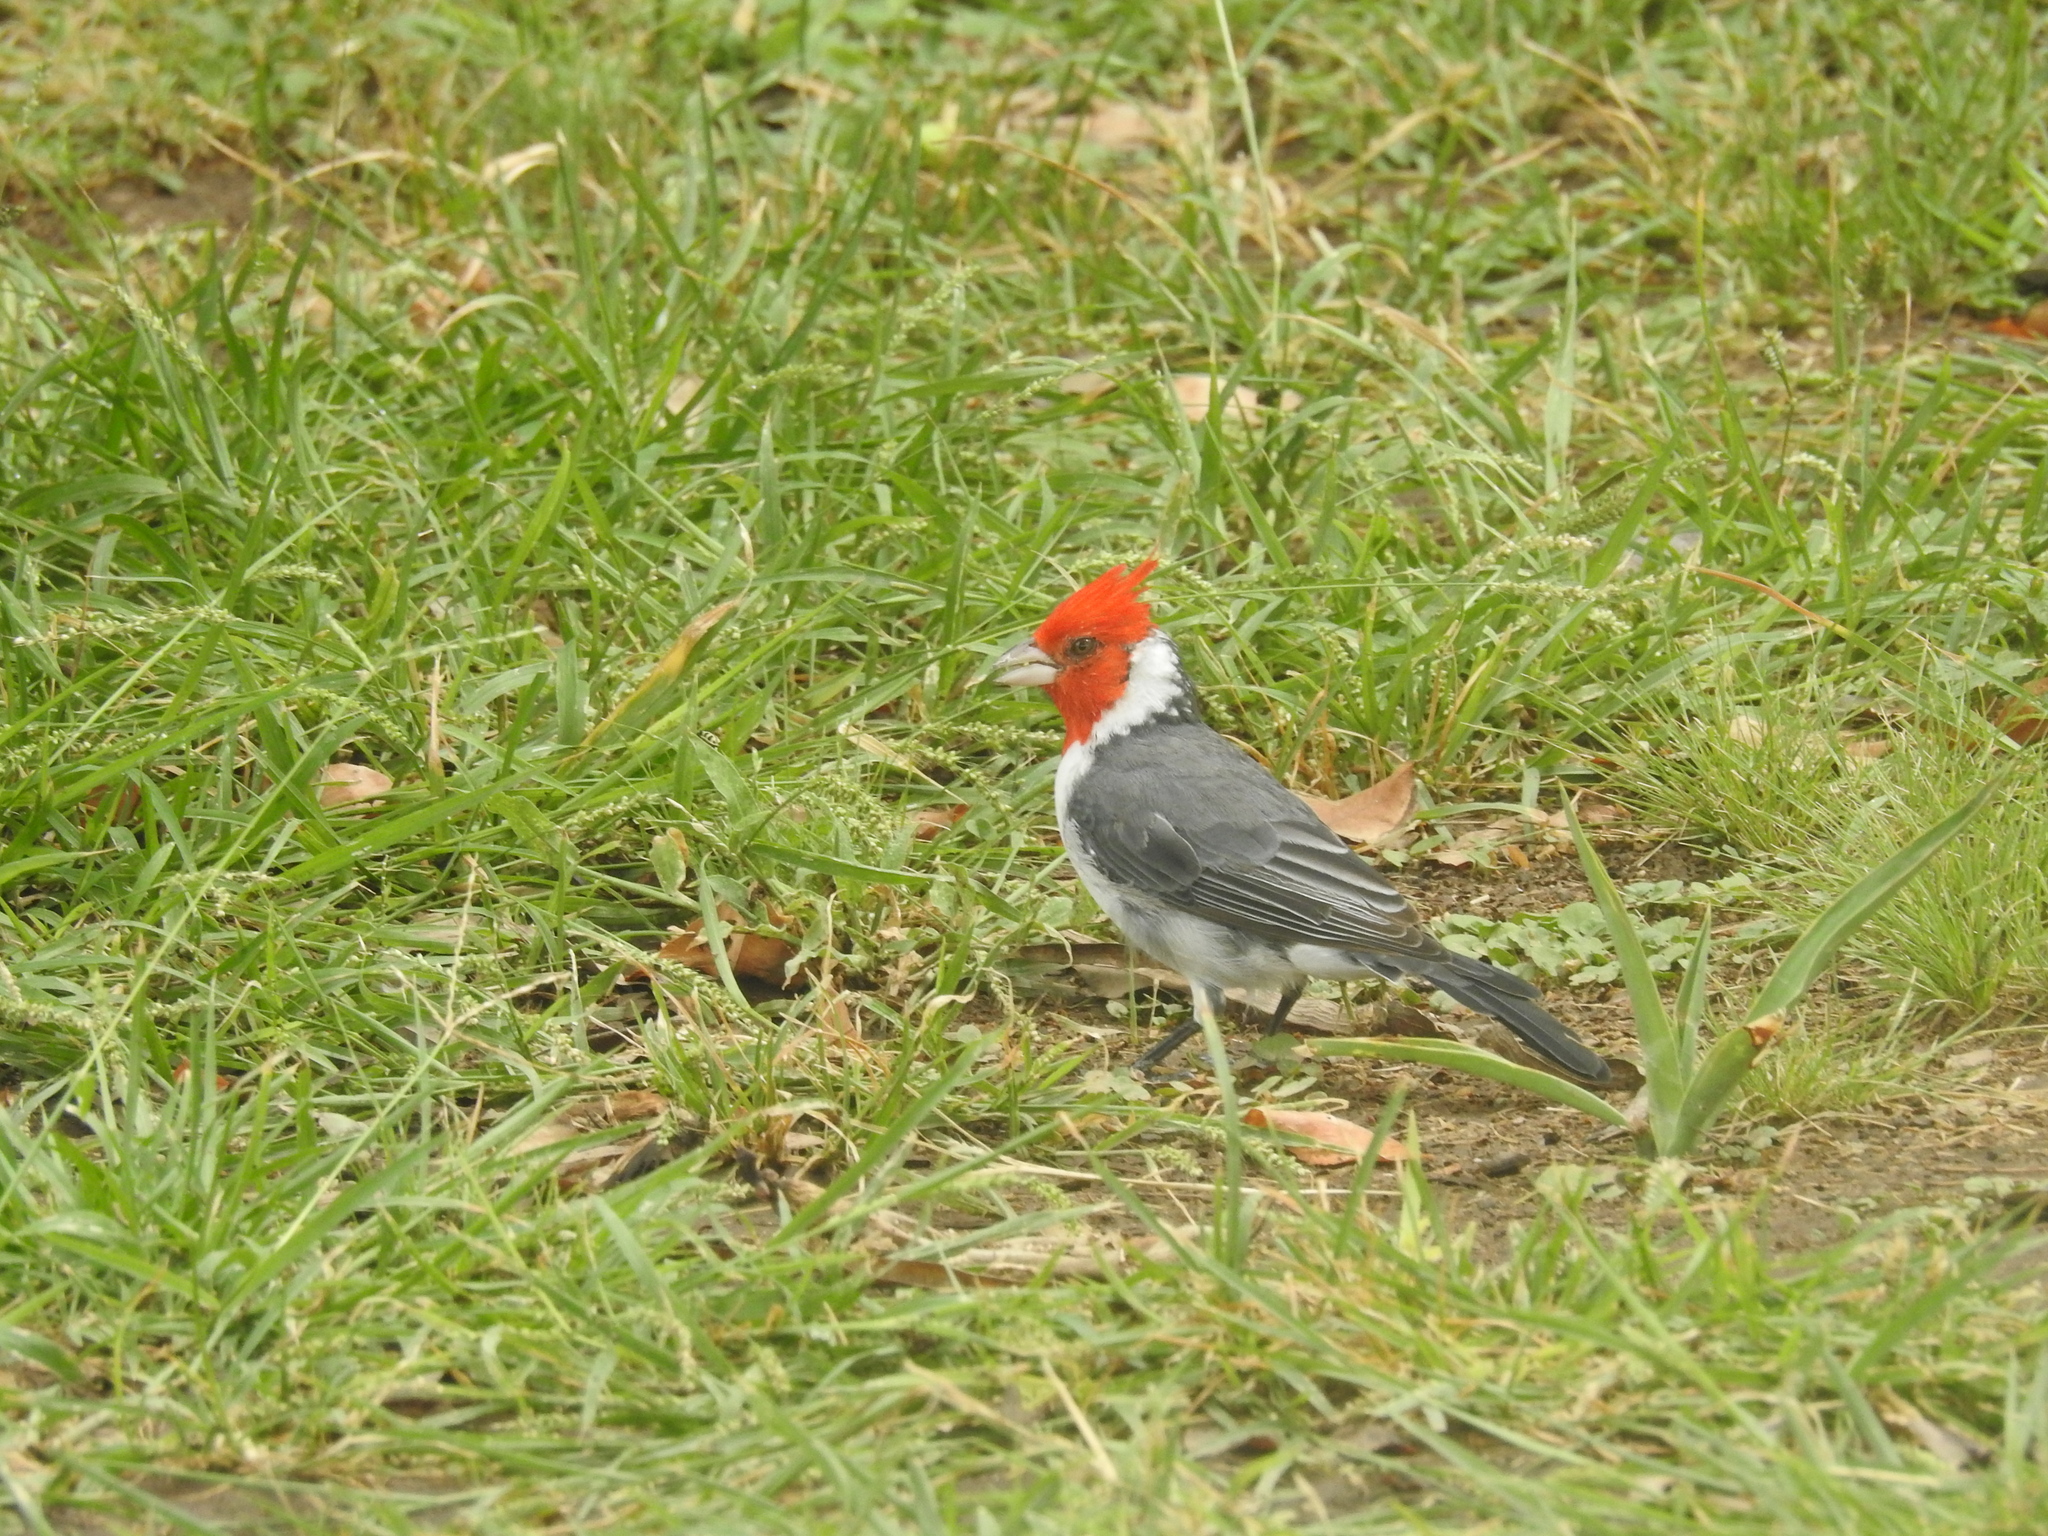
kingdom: Animalia
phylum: Chordata
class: Aves
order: Passeriformes
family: Thraupidae
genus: Paroaria
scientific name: Paroaria coronata
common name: Red-crested cardinal
